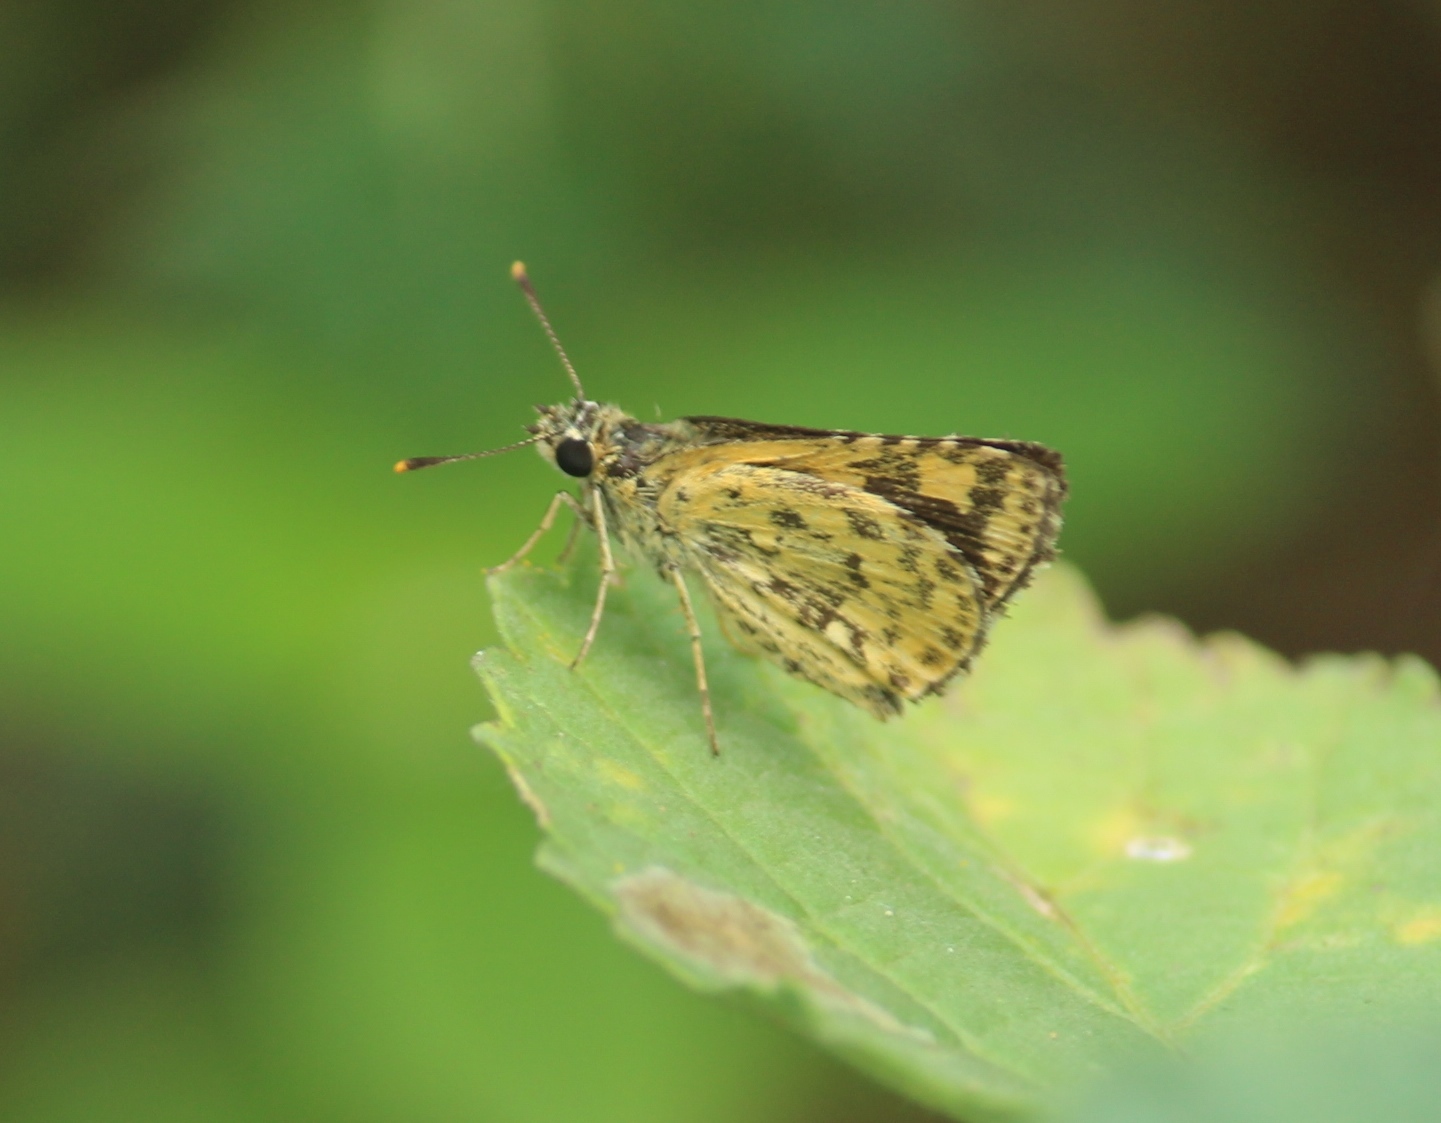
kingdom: Animalia
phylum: Arthropoda
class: Insecta
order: Lepidoptera
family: Hesperiidae
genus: Ampittia
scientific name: Ampittia dioscorides
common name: Common bush hopper
